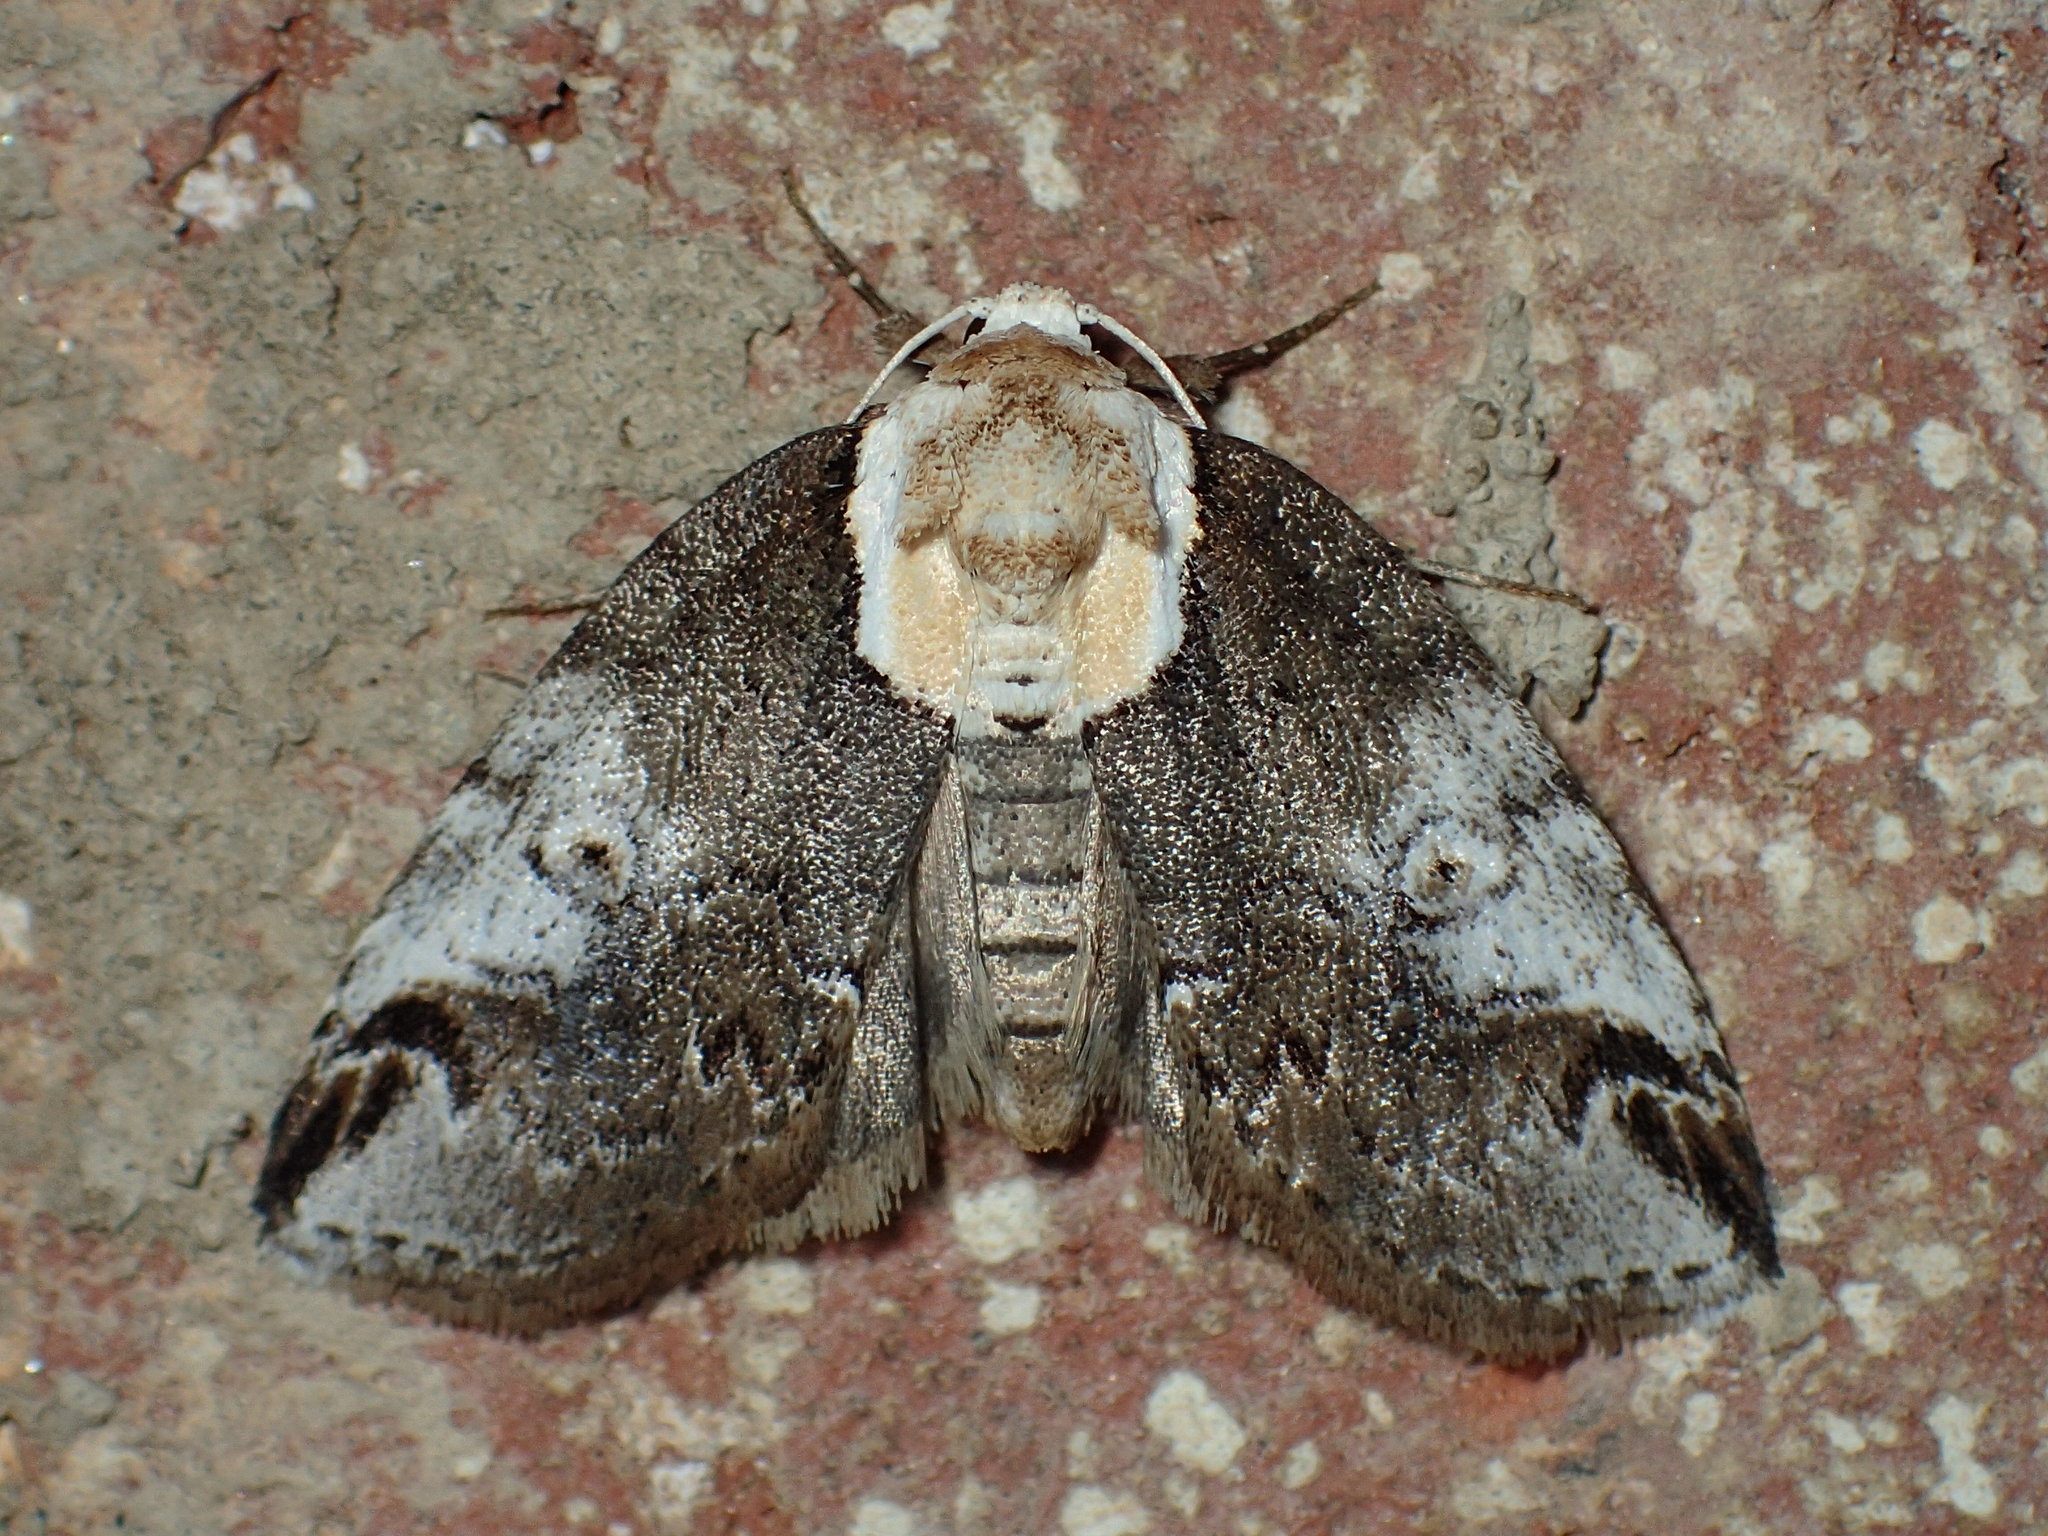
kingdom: Animalia
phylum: Arthropoda
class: Insecta
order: Lepidoptera
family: Nolidae
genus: Baileya
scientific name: Baileya ophthalmica
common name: Eyed baileya moth
